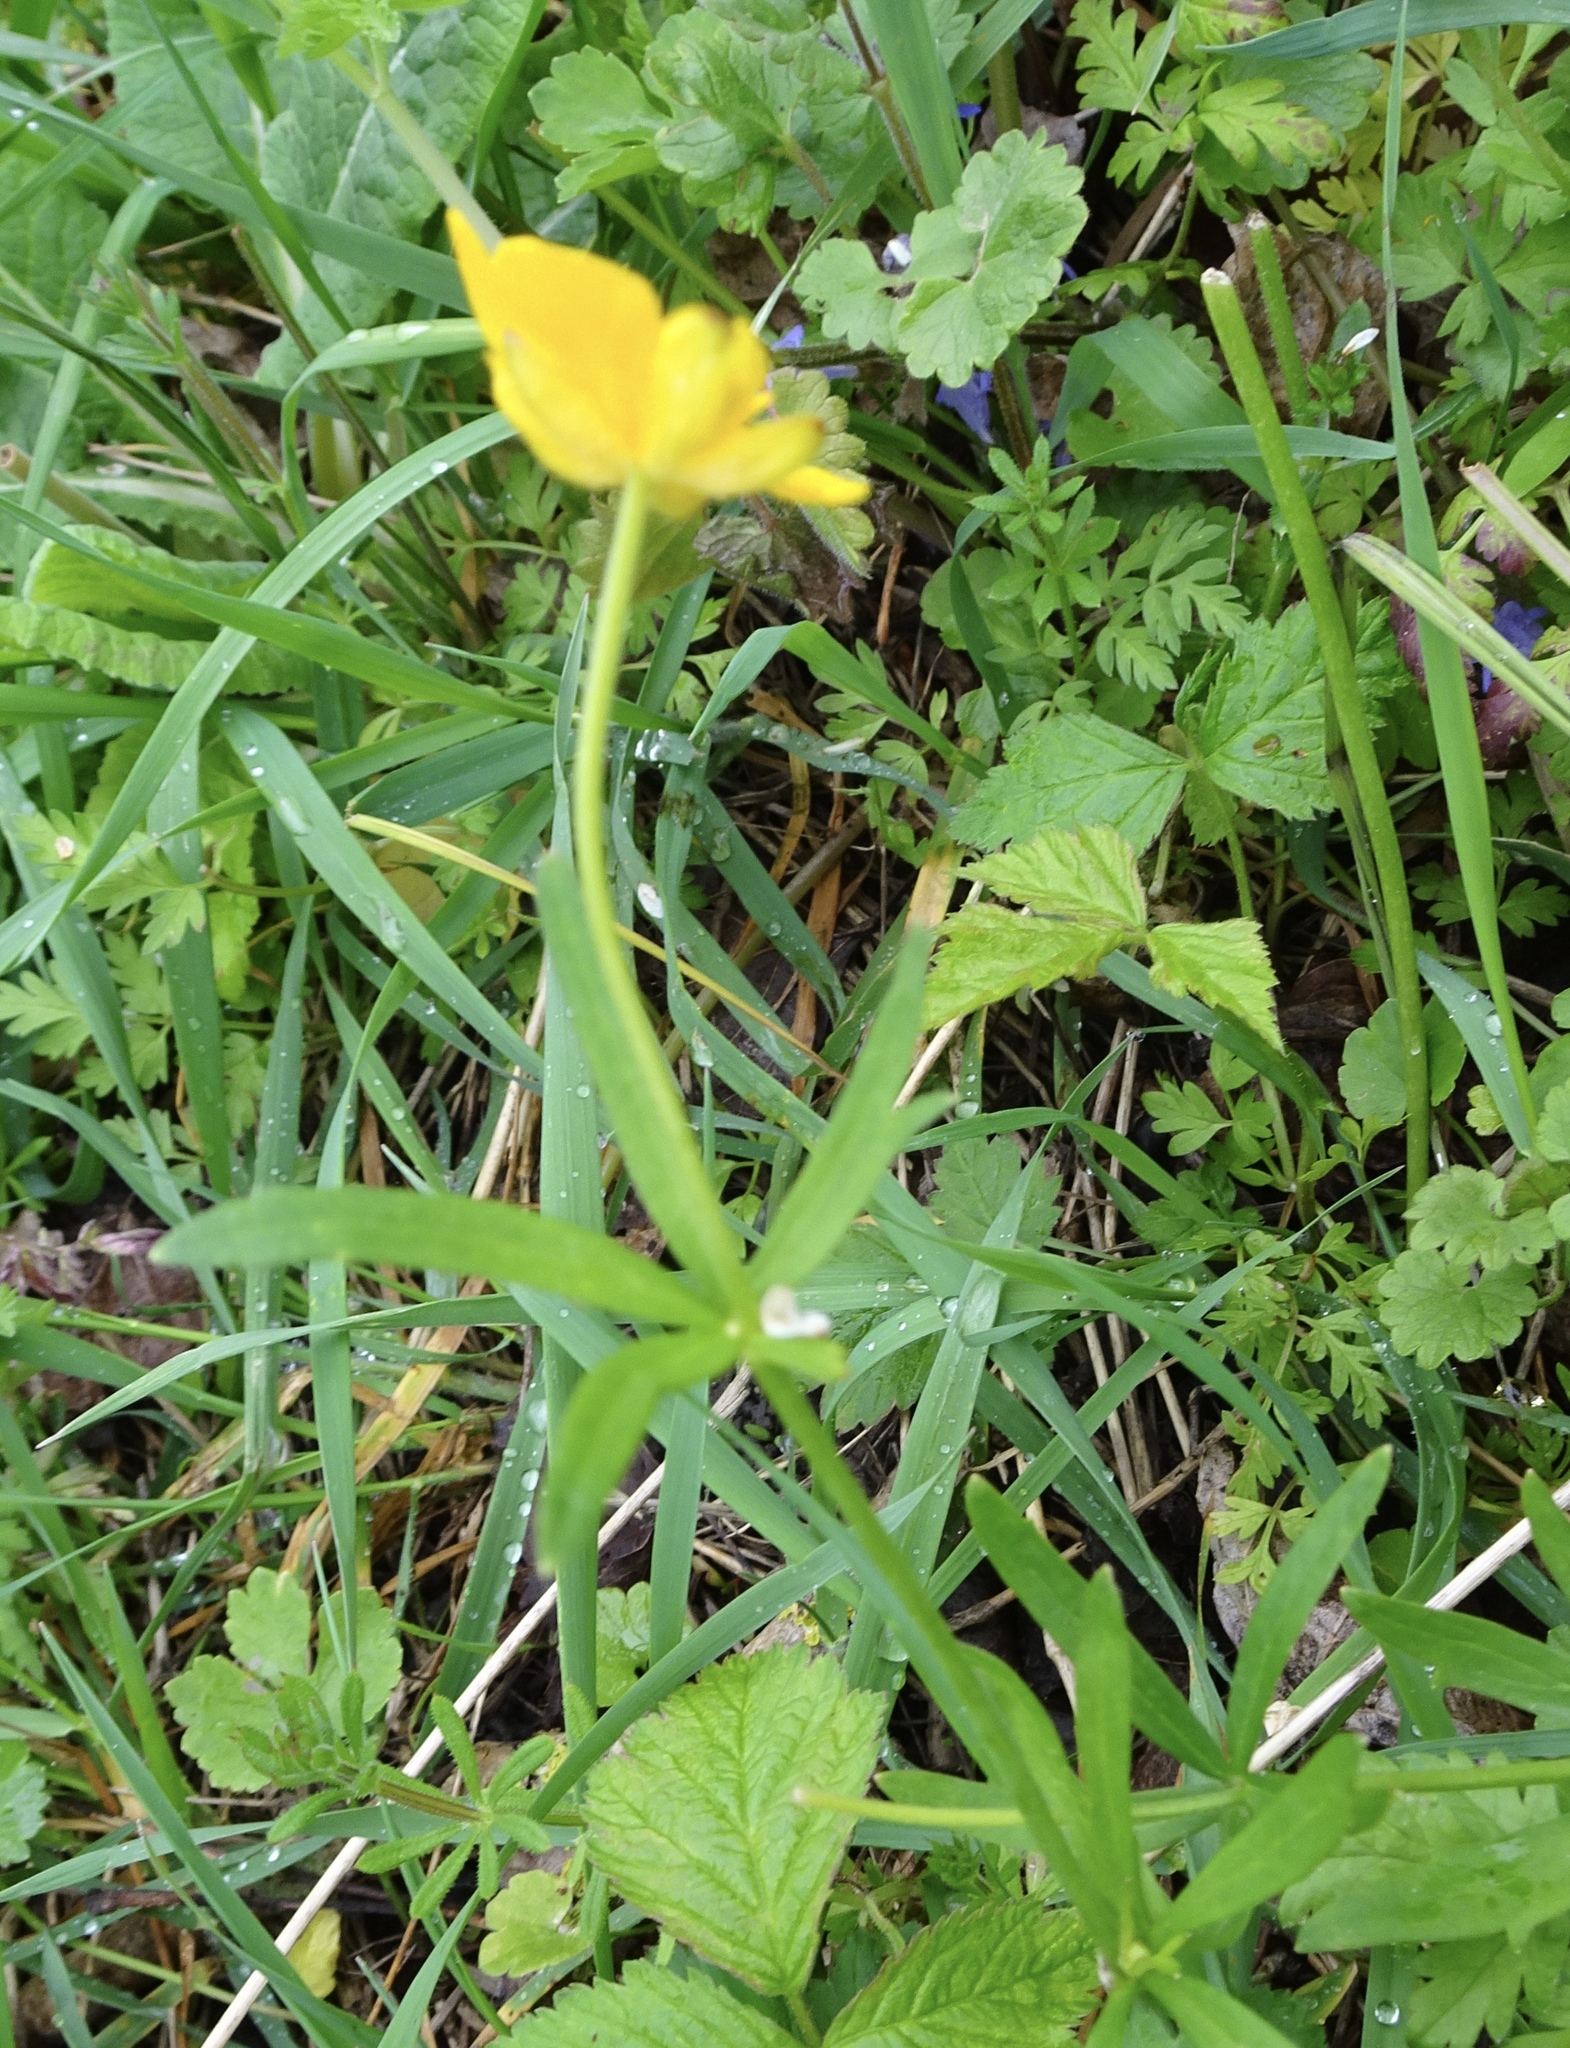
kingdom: Plantae
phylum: Tracheophyta
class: Magnoliopsida
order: Ranunculales
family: Ranunculaceae
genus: Ranunculus
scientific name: Ranunculus auricomus
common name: Goldilocks buttercup
